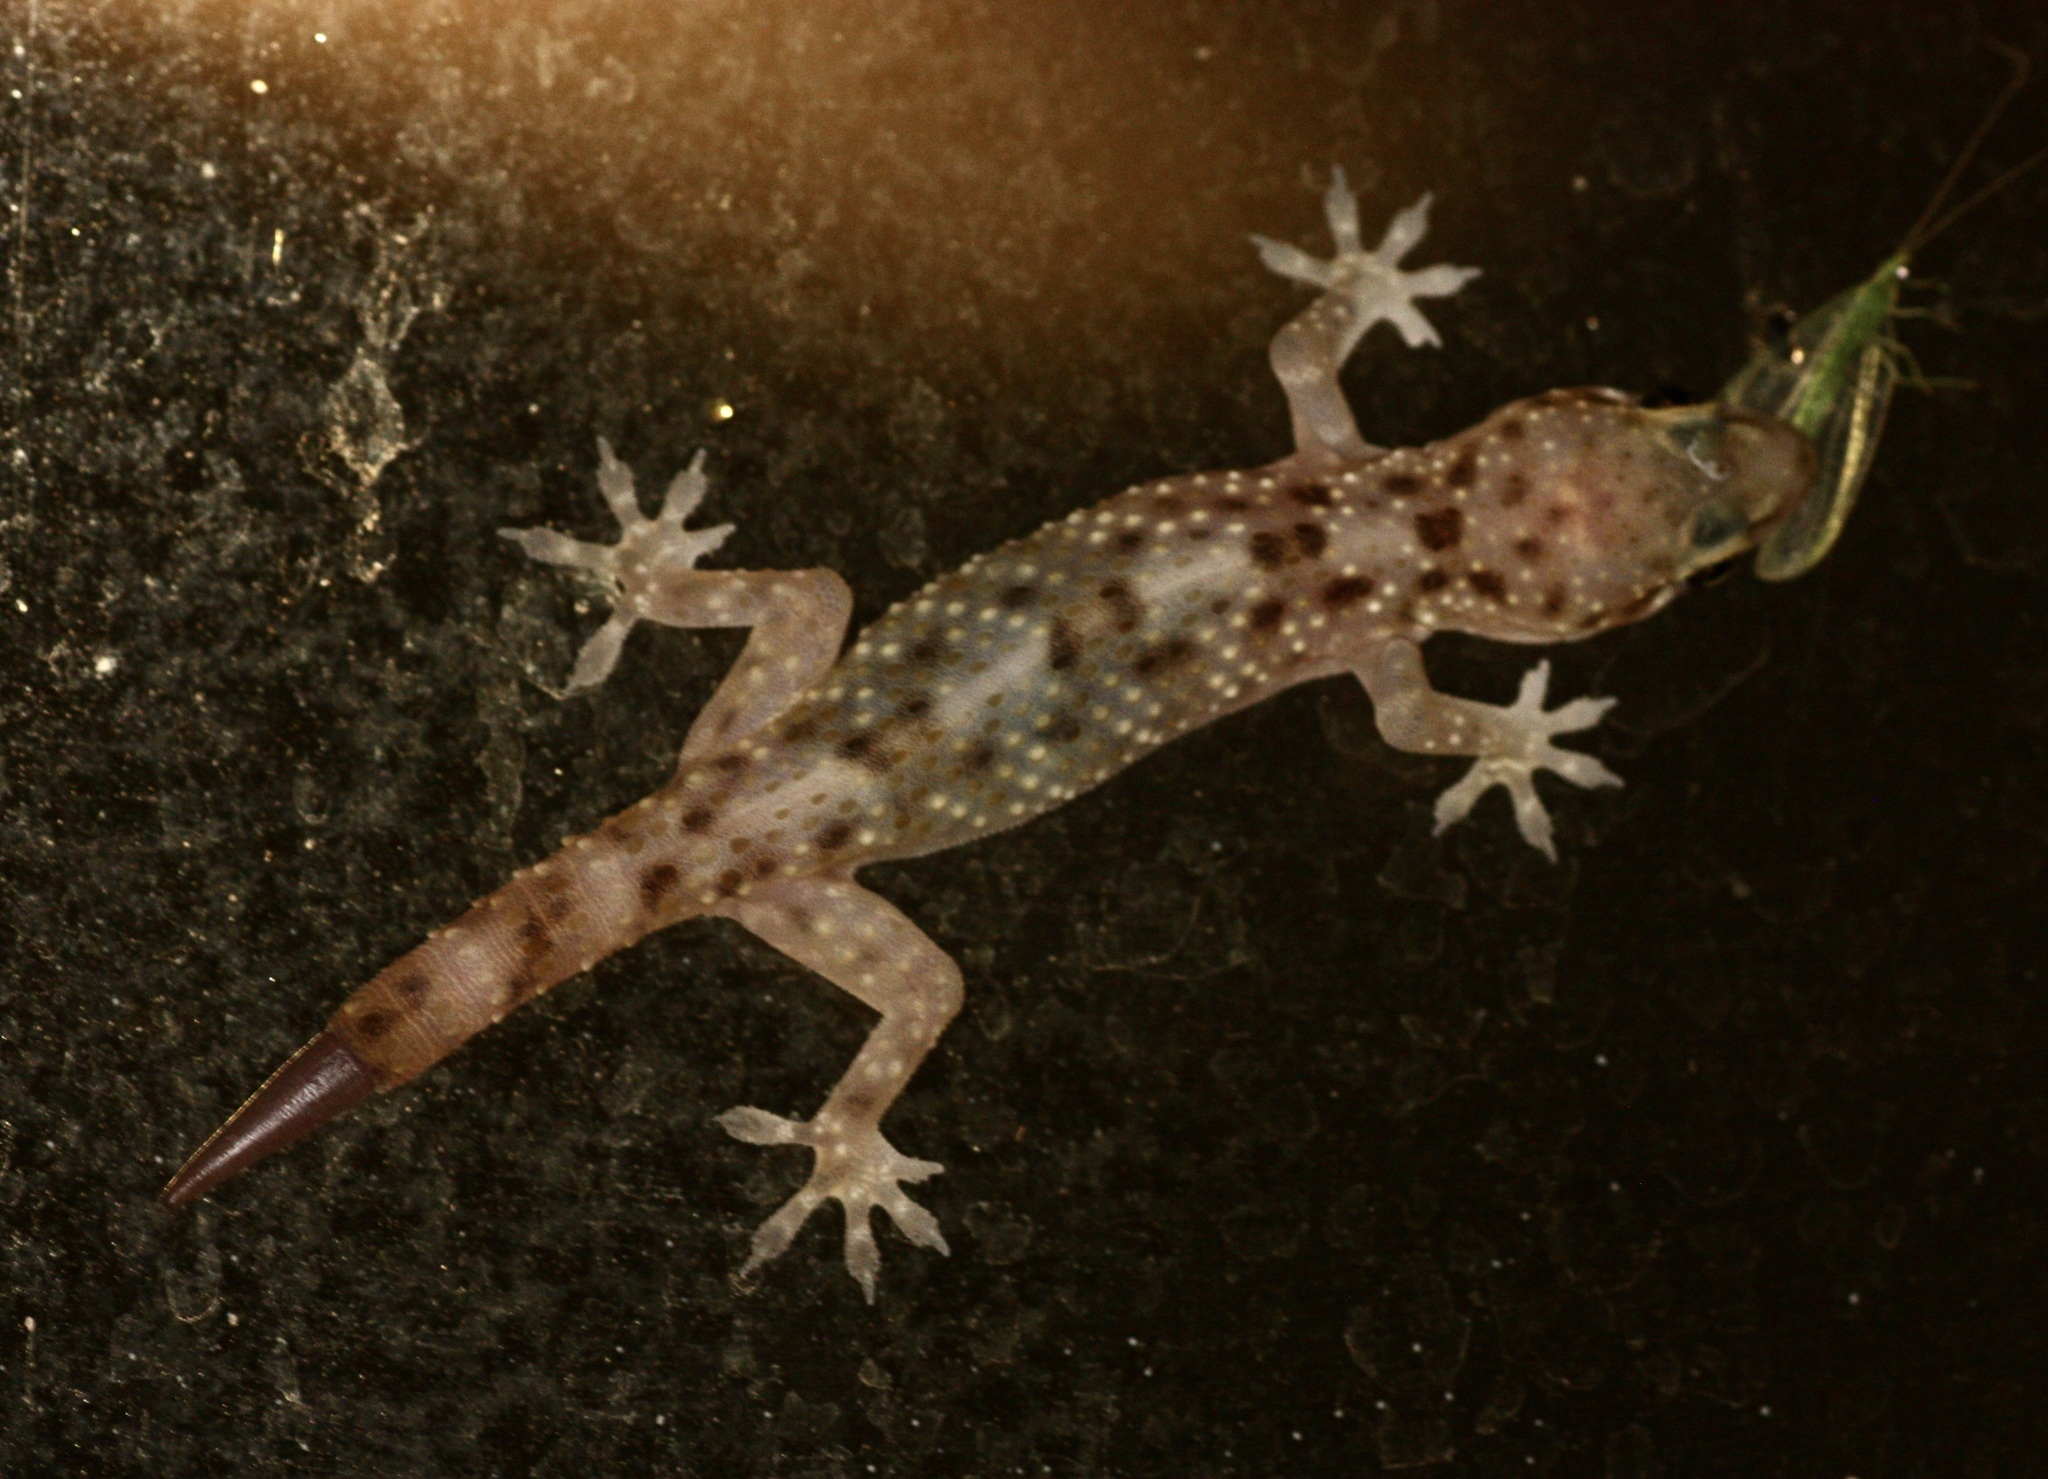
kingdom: Animalia
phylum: Chordata
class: Squamata
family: Gekkonidae
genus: Hemidactylus
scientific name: Hemidactylus turcicus
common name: Turkish gecko
